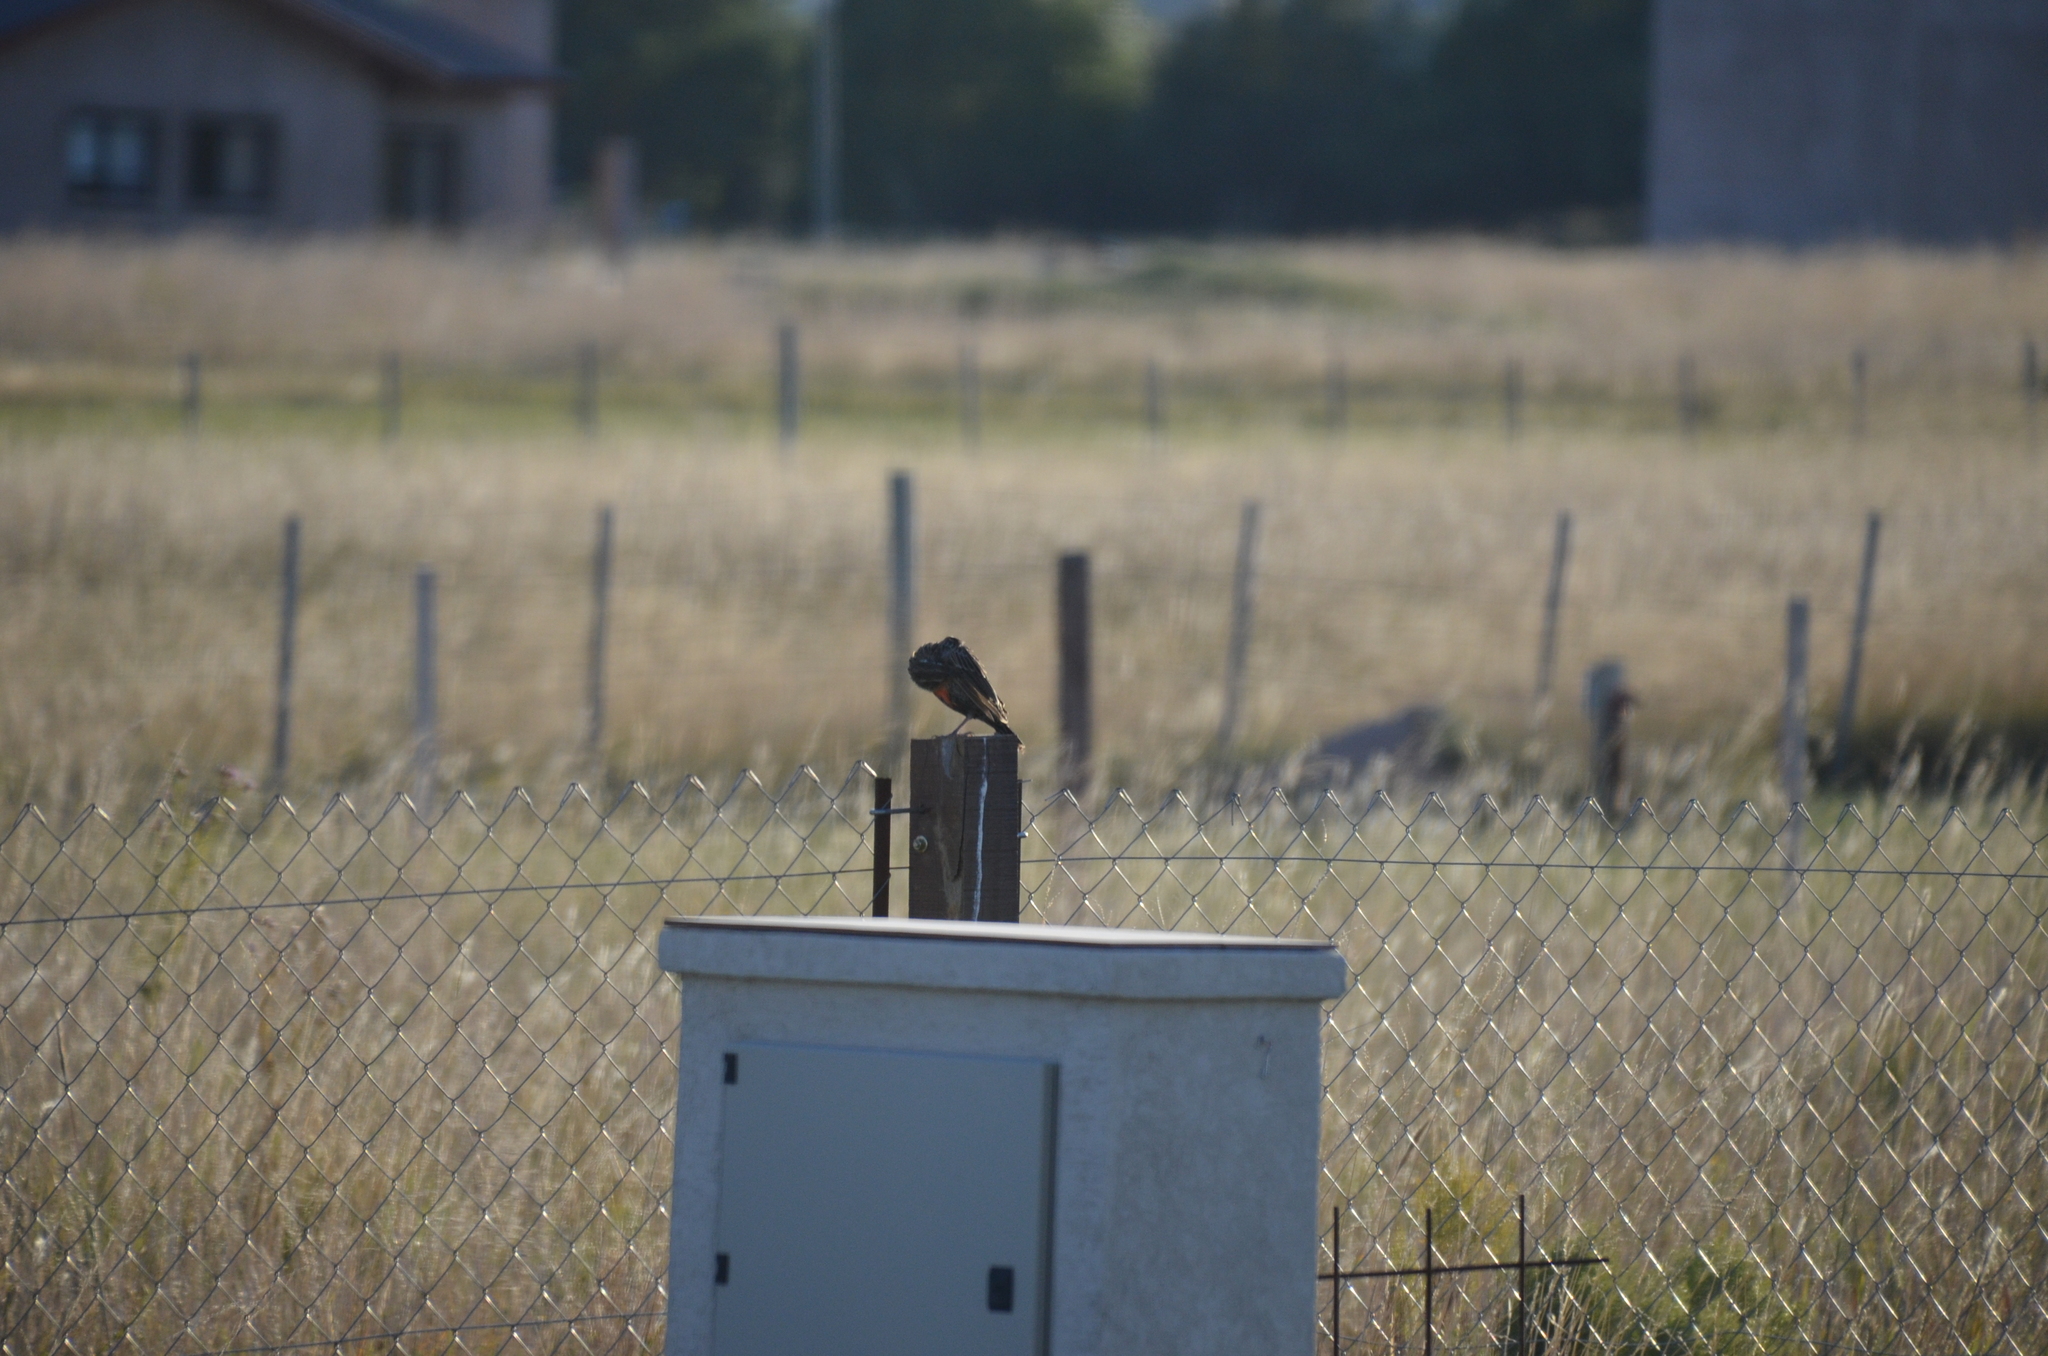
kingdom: Animalia
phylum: Chordata
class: Aves
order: Passeriformes
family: Icteridae
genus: Sturnella
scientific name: Sturnella loyca
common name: Long-tailed meadowlark
